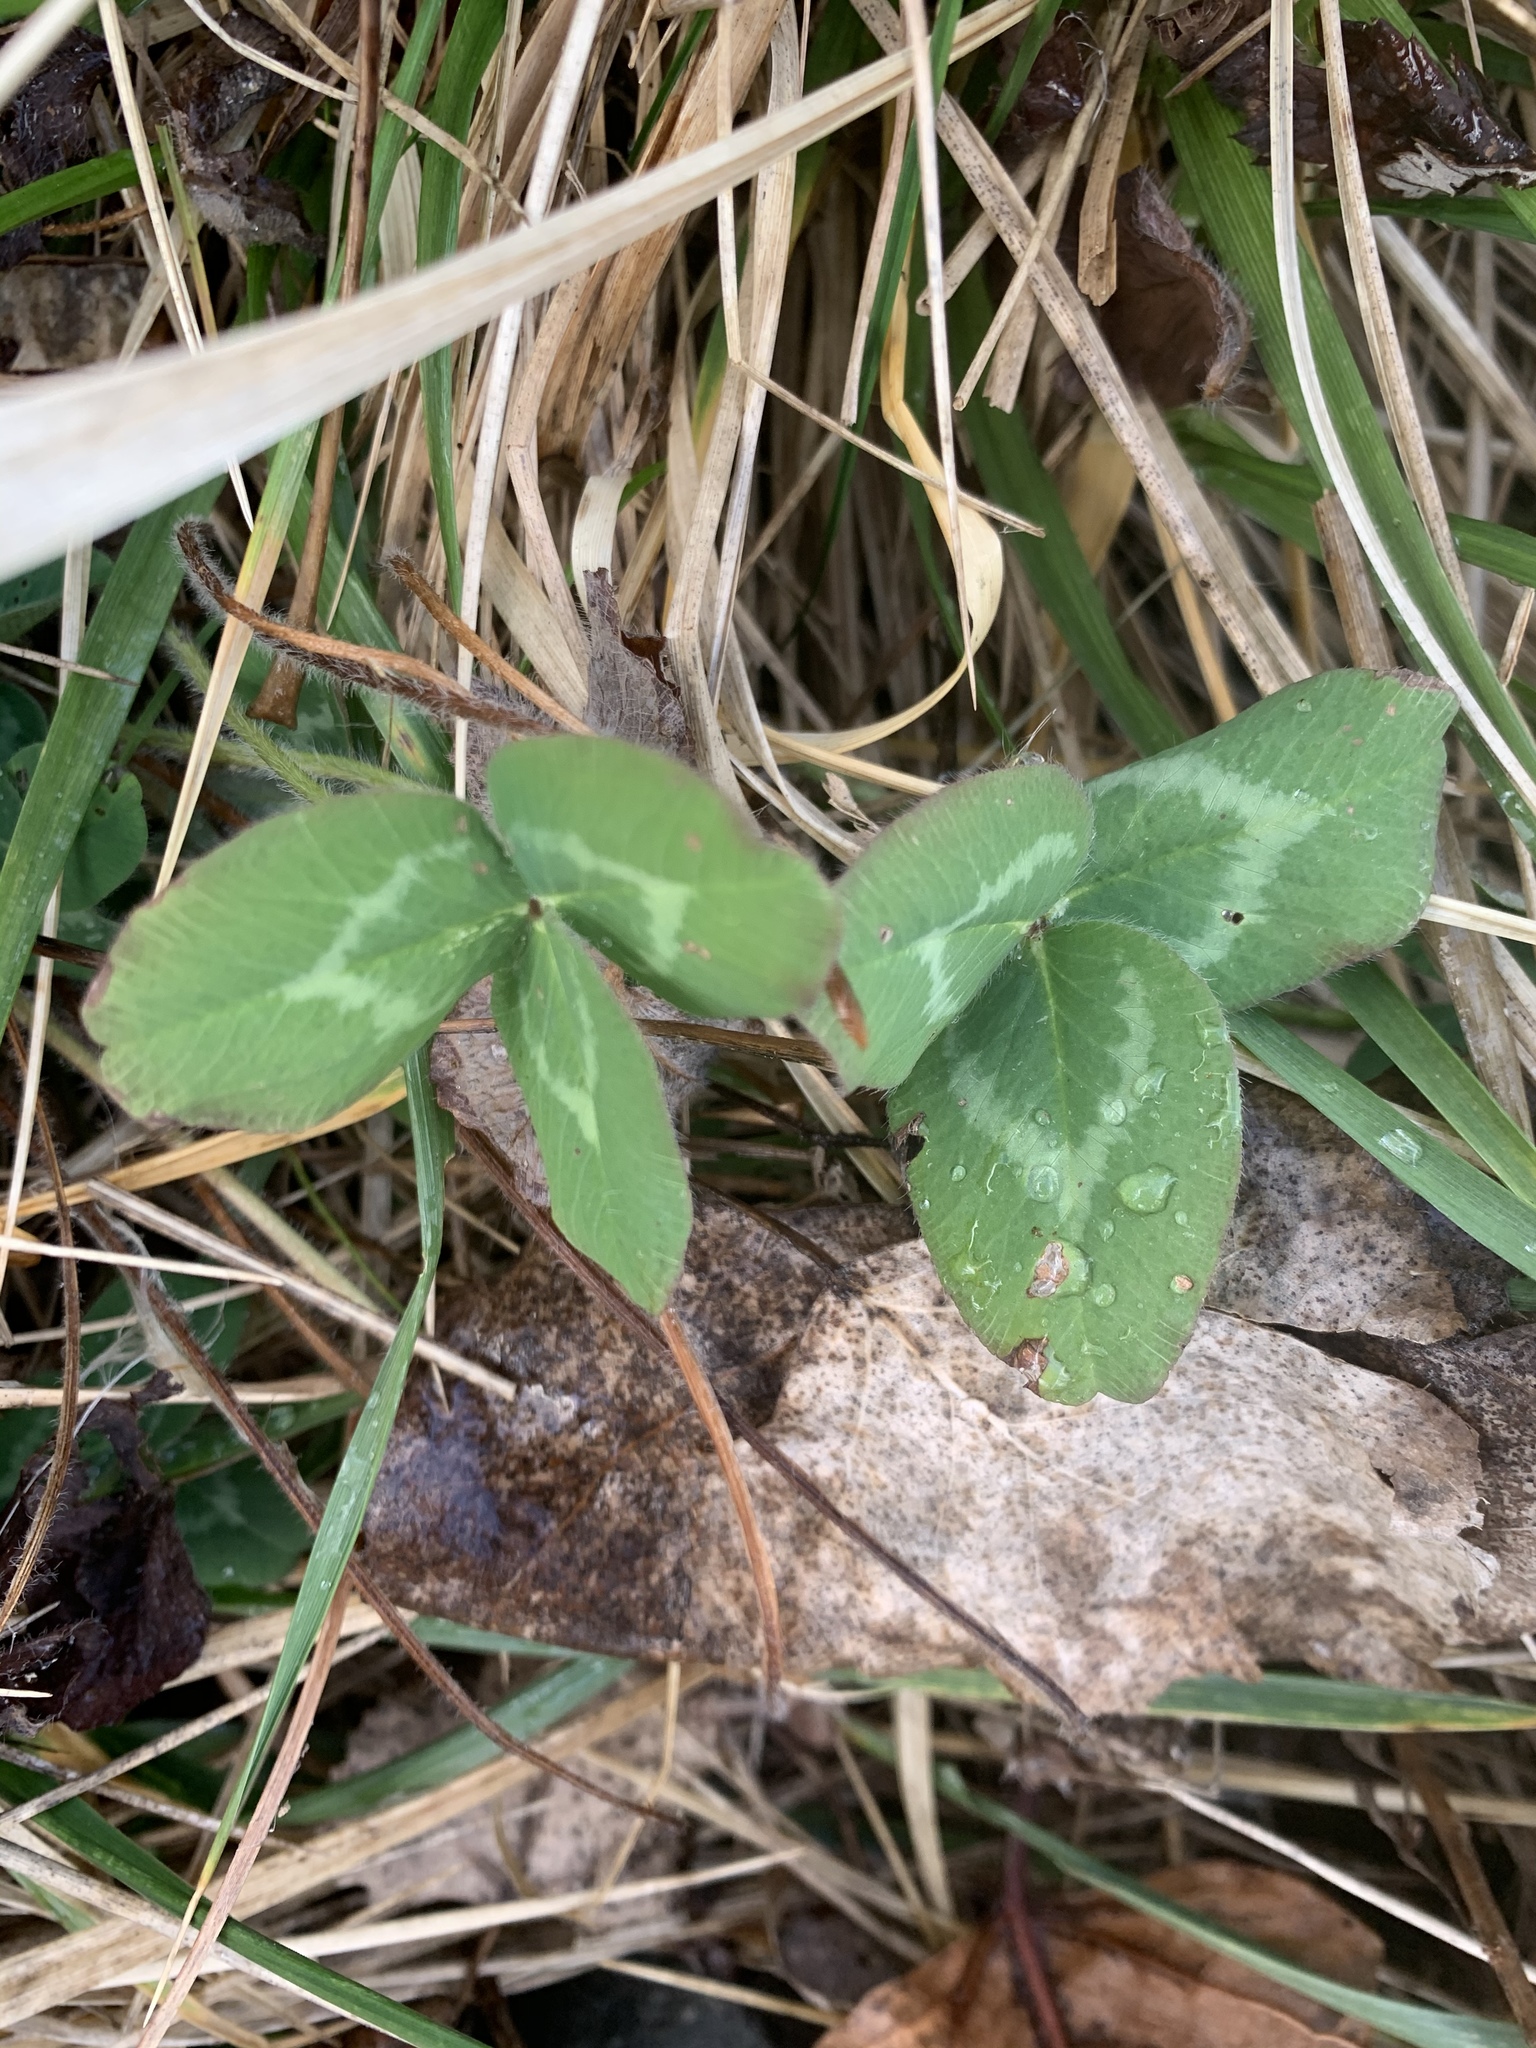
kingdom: Plantae
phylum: Tracheophyta
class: Magnoliopsida
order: Fabales
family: Fabaceae
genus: Trifolium
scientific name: Trifolium pratense
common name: Red clover
